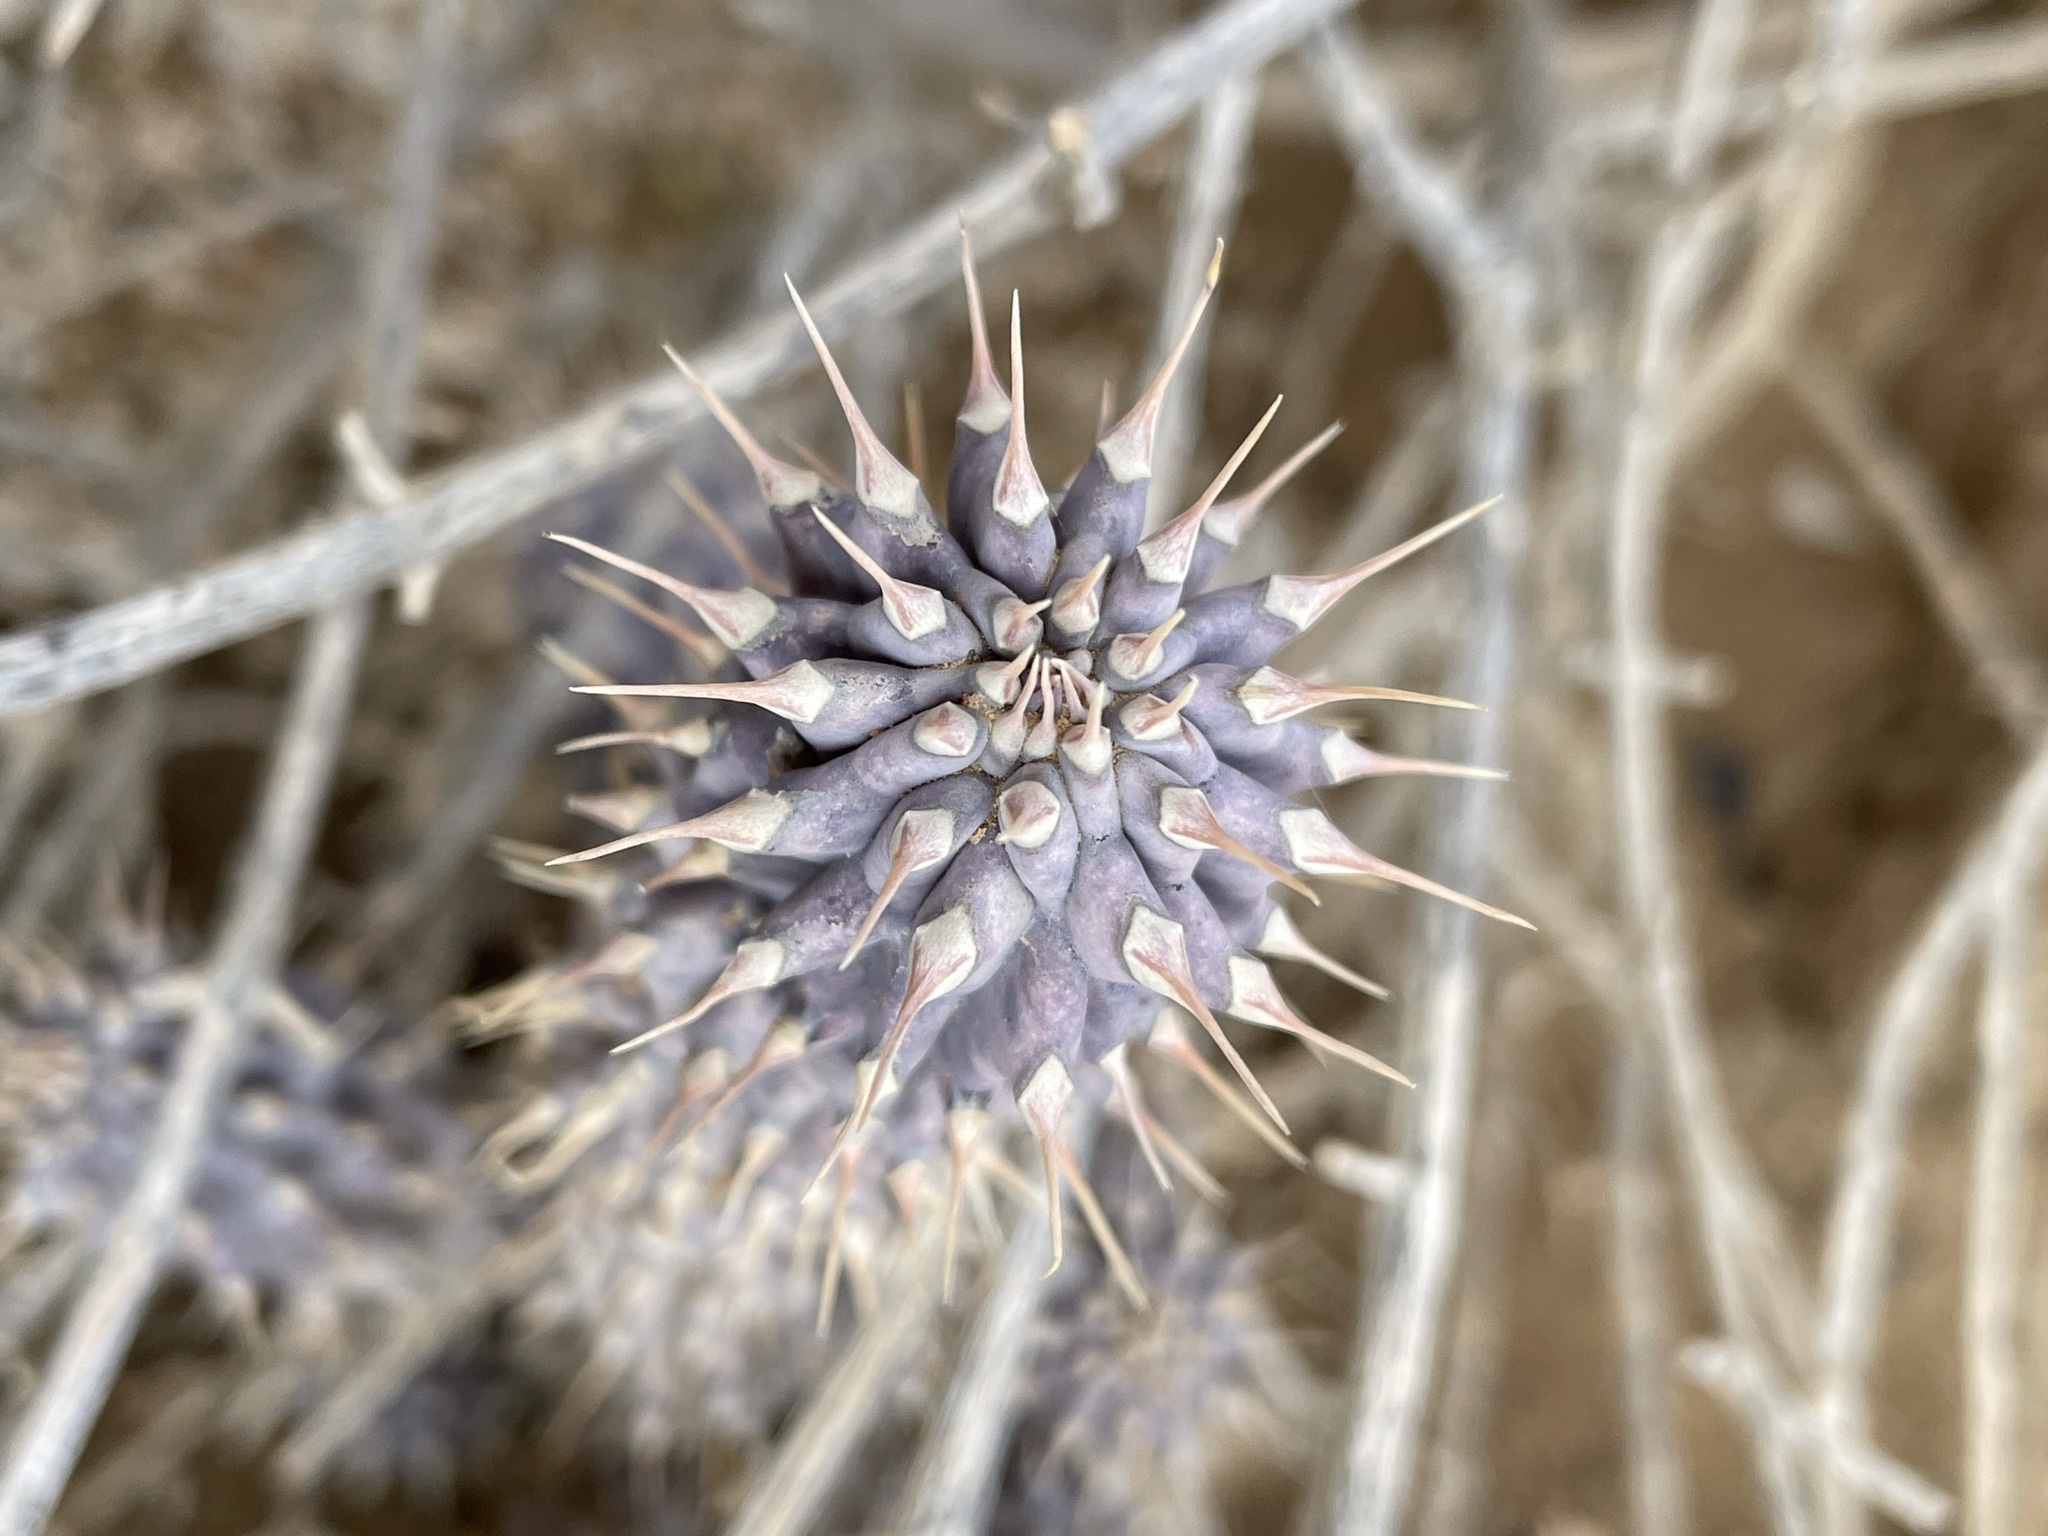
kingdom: Plantae
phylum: Tracheophyta
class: Magnoliopsida
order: Gentianales
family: Apocynaceae
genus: Hoodia
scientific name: Hoodia gordonii
